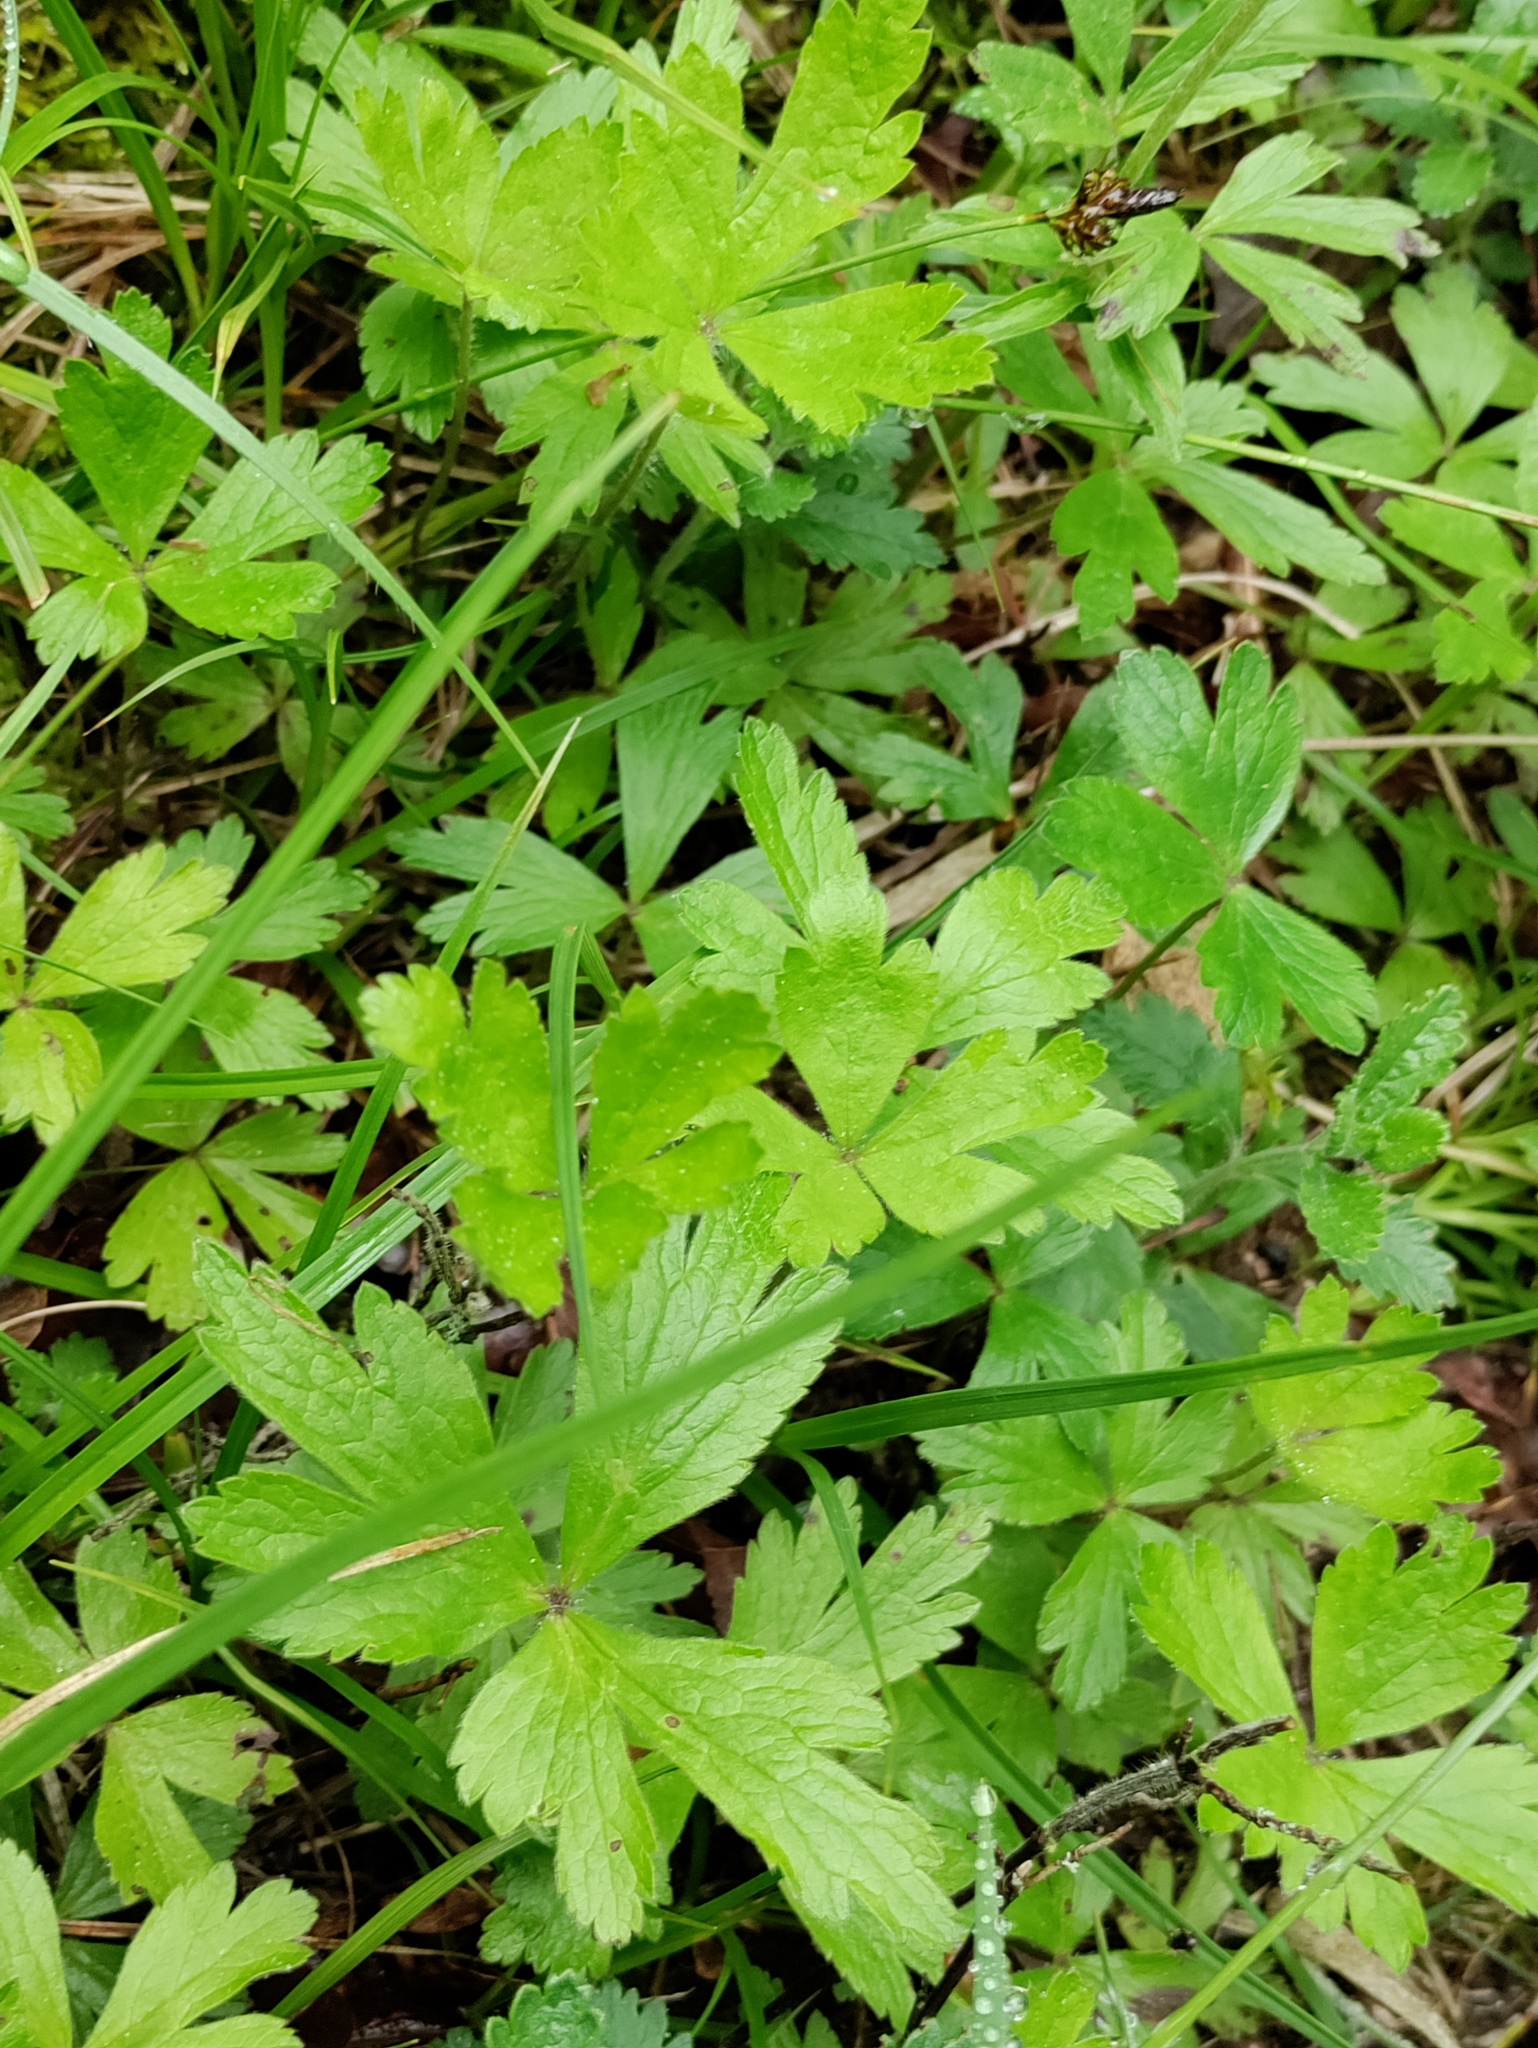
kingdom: Plantae
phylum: Tracheophyta
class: Magnoliopsida
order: Ranunculales
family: Ranunculaceae
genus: Anemone
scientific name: Anemone sylvestris
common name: Snowdrop anemone
